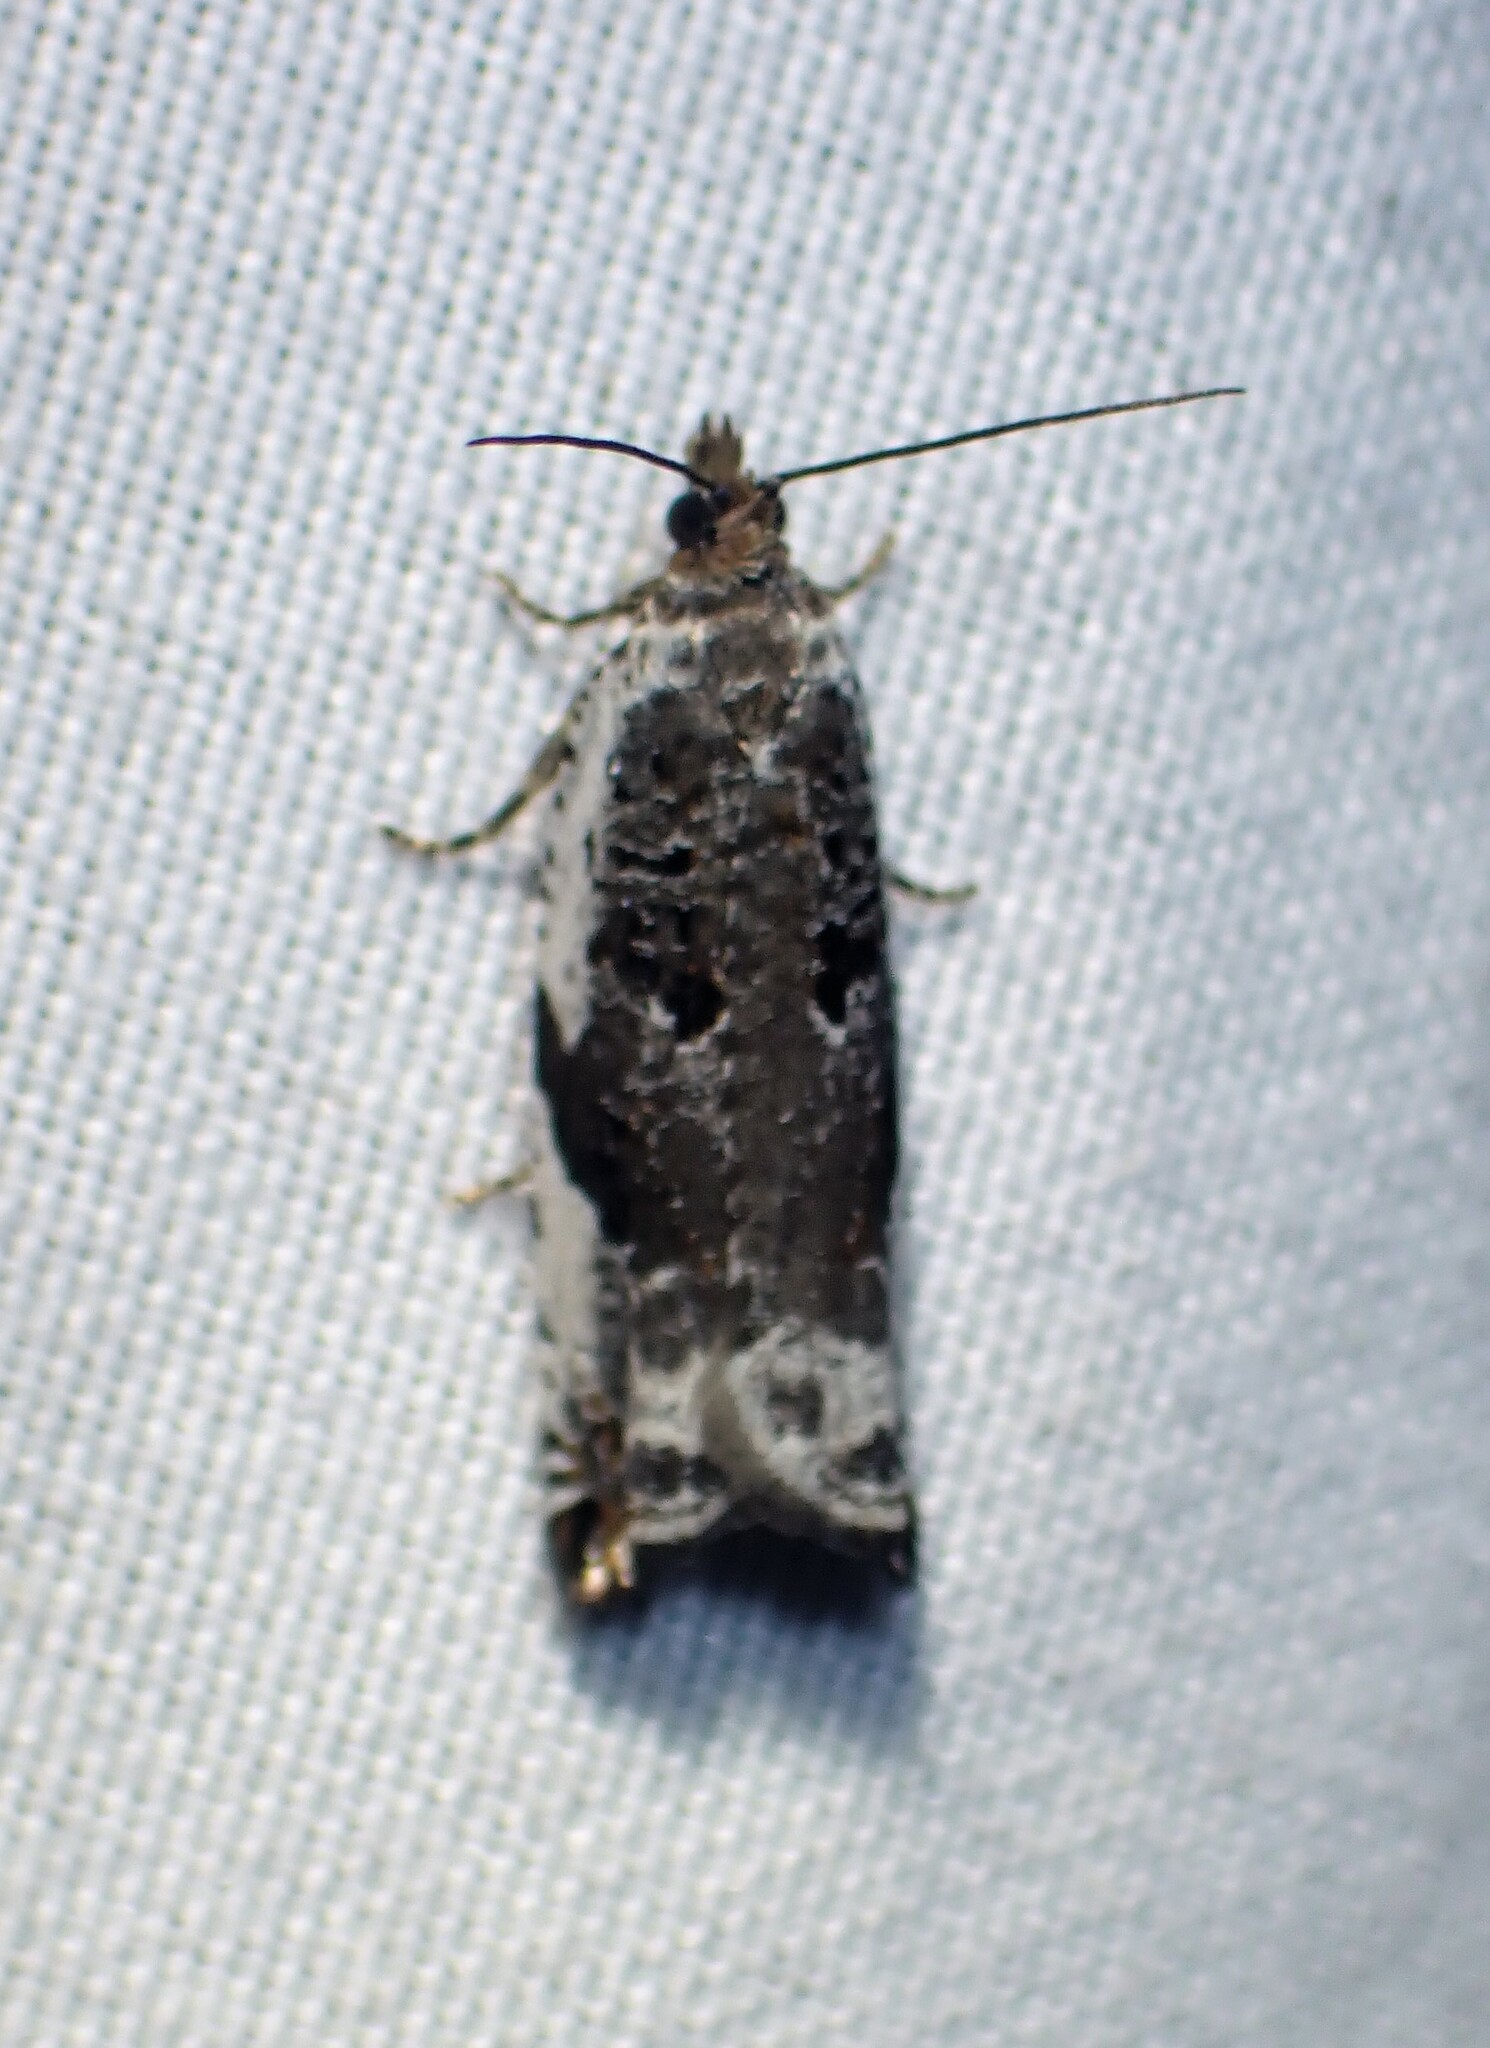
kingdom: Animalia
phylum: Arthropoda
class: Insecta
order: Lepidoptera
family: Tortricidae
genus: Ancylis
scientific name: Ancylis mediofasciana
